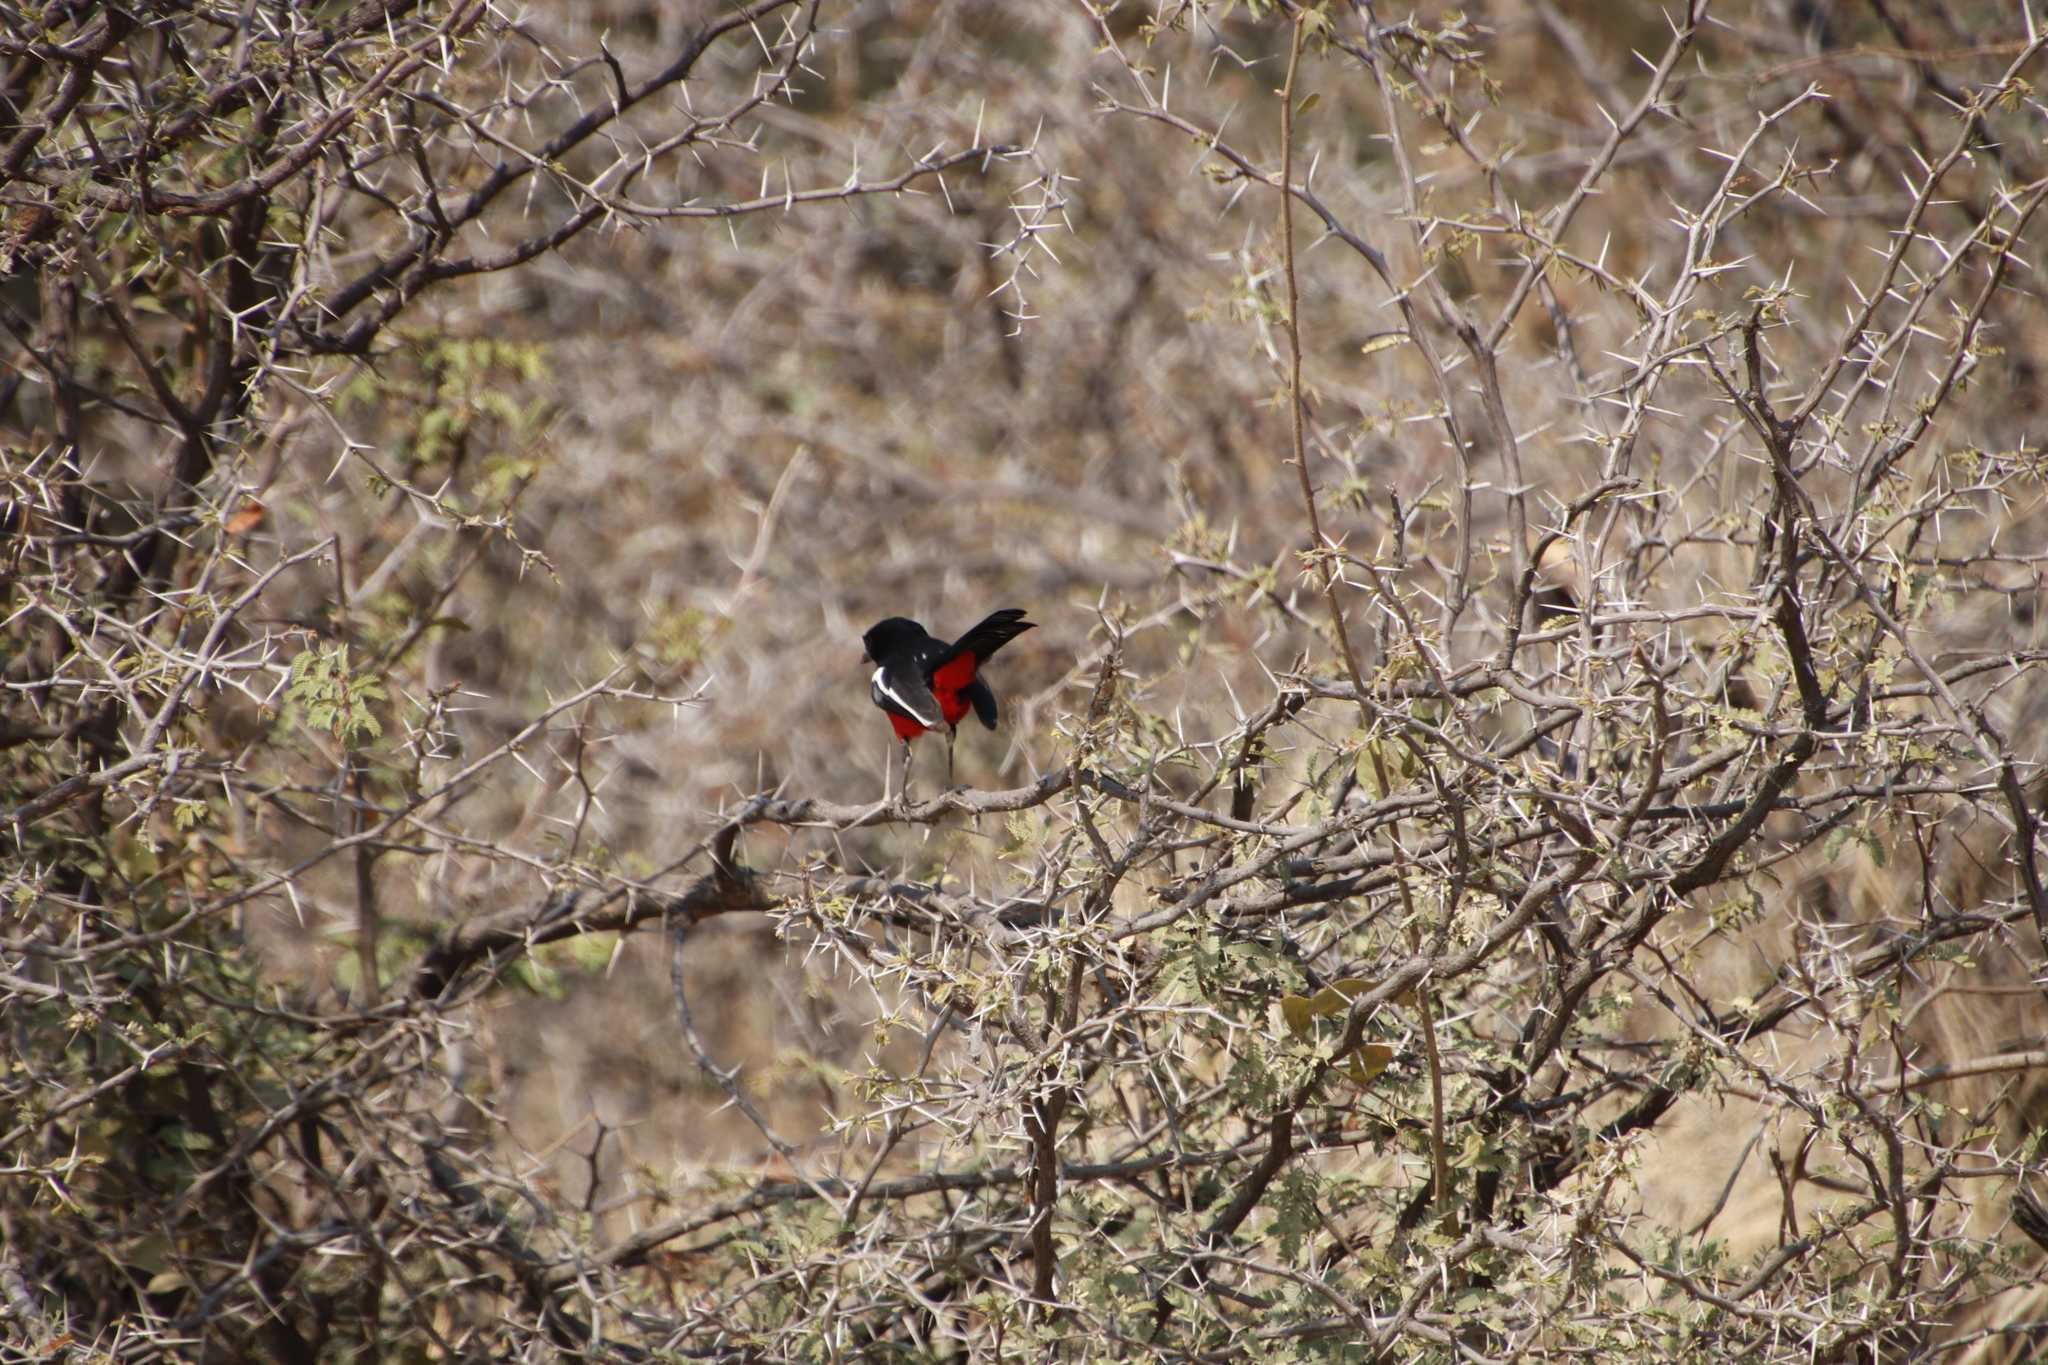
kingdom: Animalia
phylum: Chordata
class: Aves
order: Passeriformes
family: Malaconotidae
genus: Laniarius
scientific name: Laniarius atrococcineus
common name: Crimson-breasted shrike
